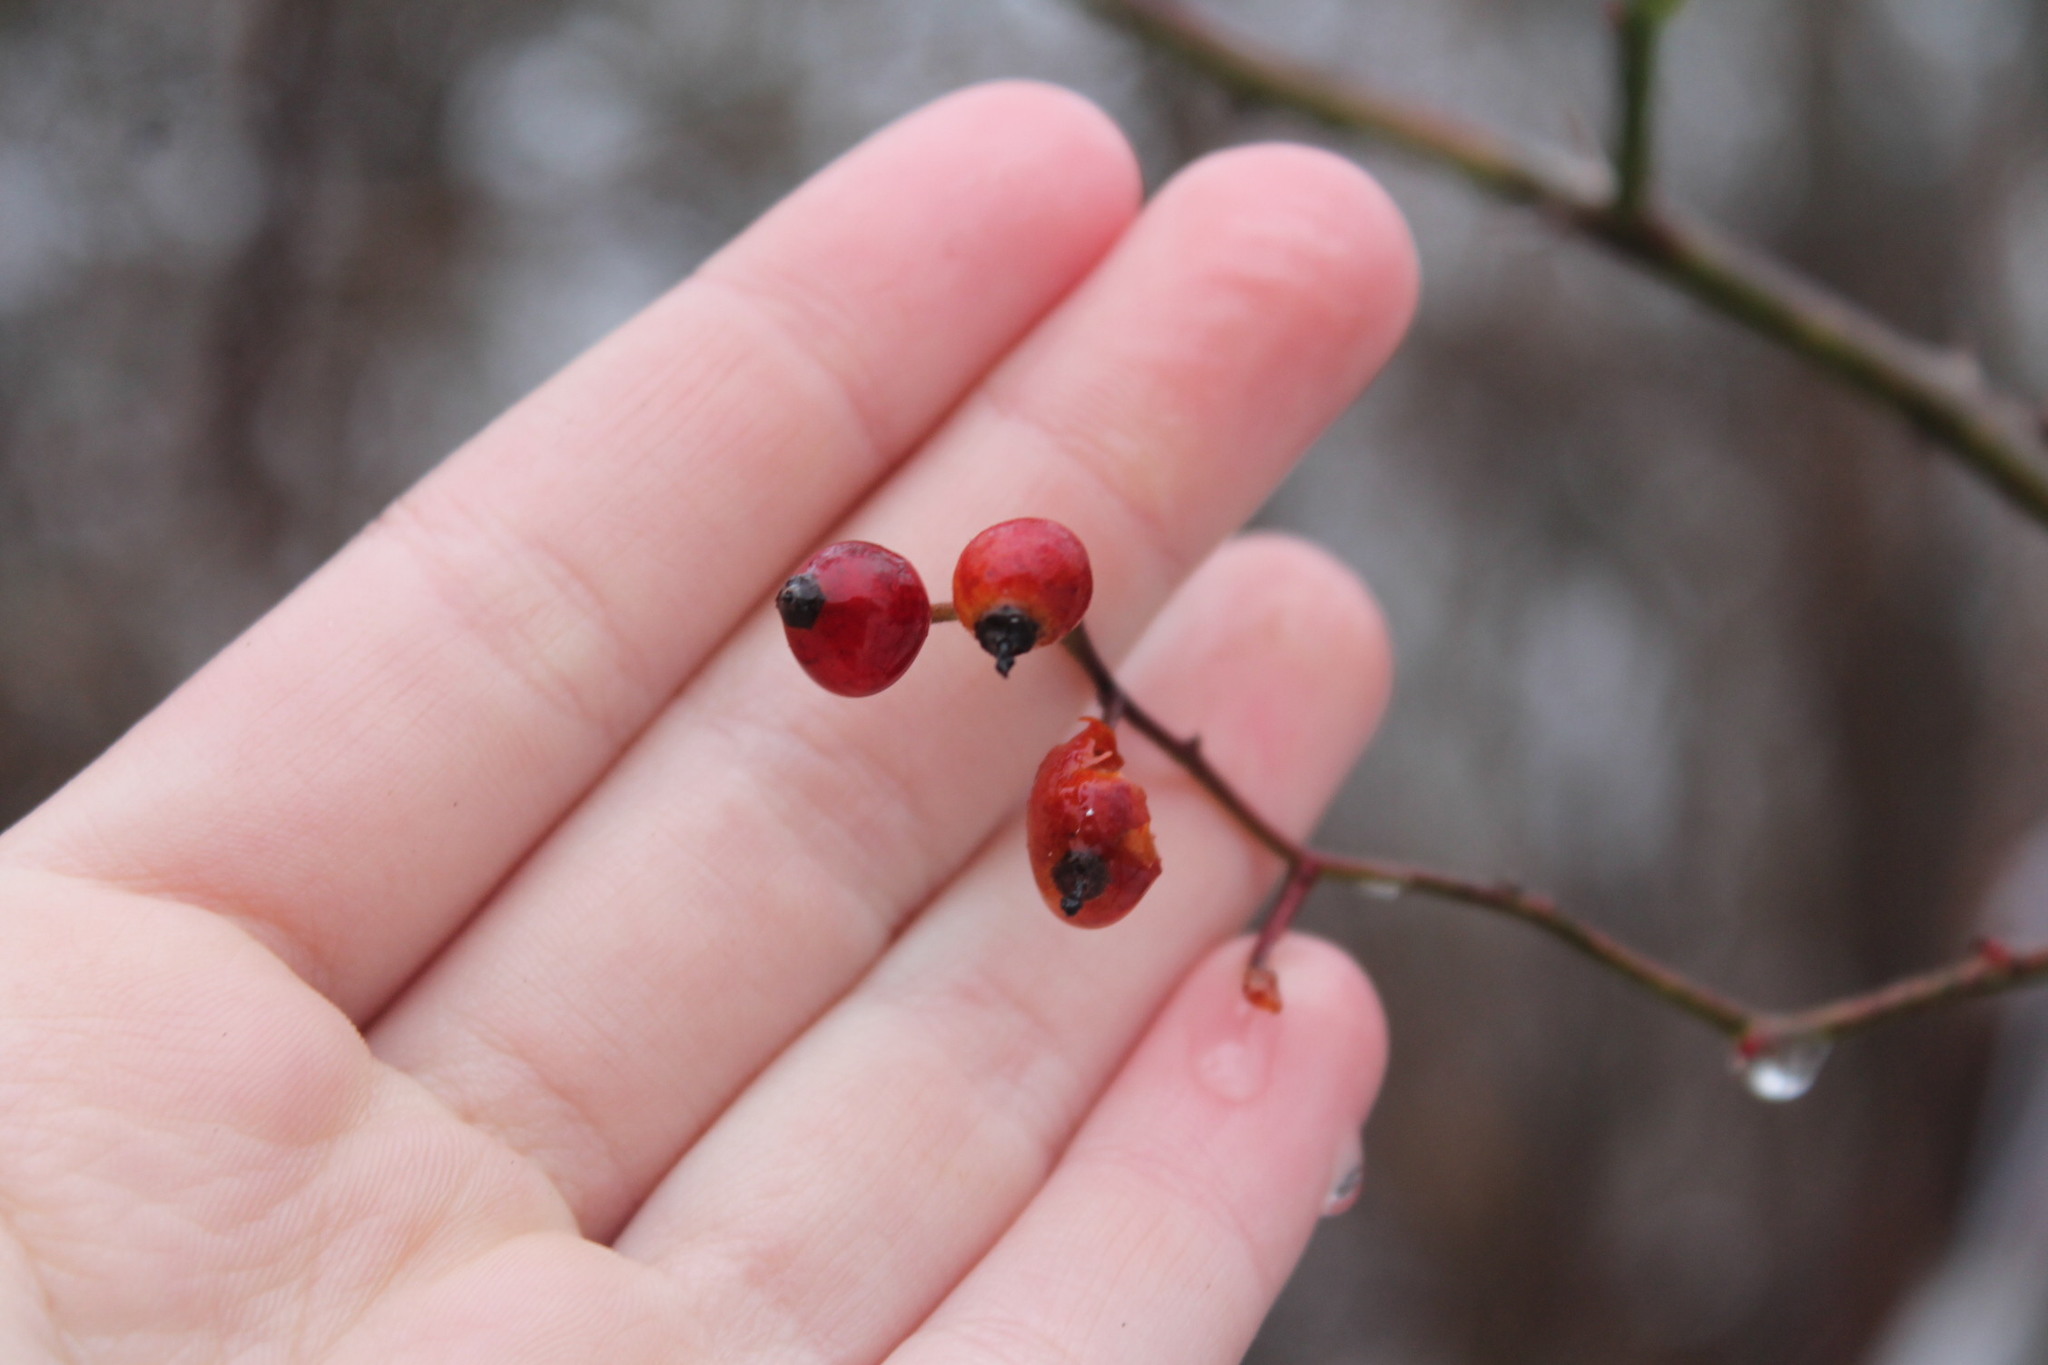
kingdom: Plantae
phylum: Tracheophyta
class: Magnoliopsida
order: Rosales
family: Rosaceae
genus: Rosa
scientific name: Rosa multiflora
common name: Multiflora rose
